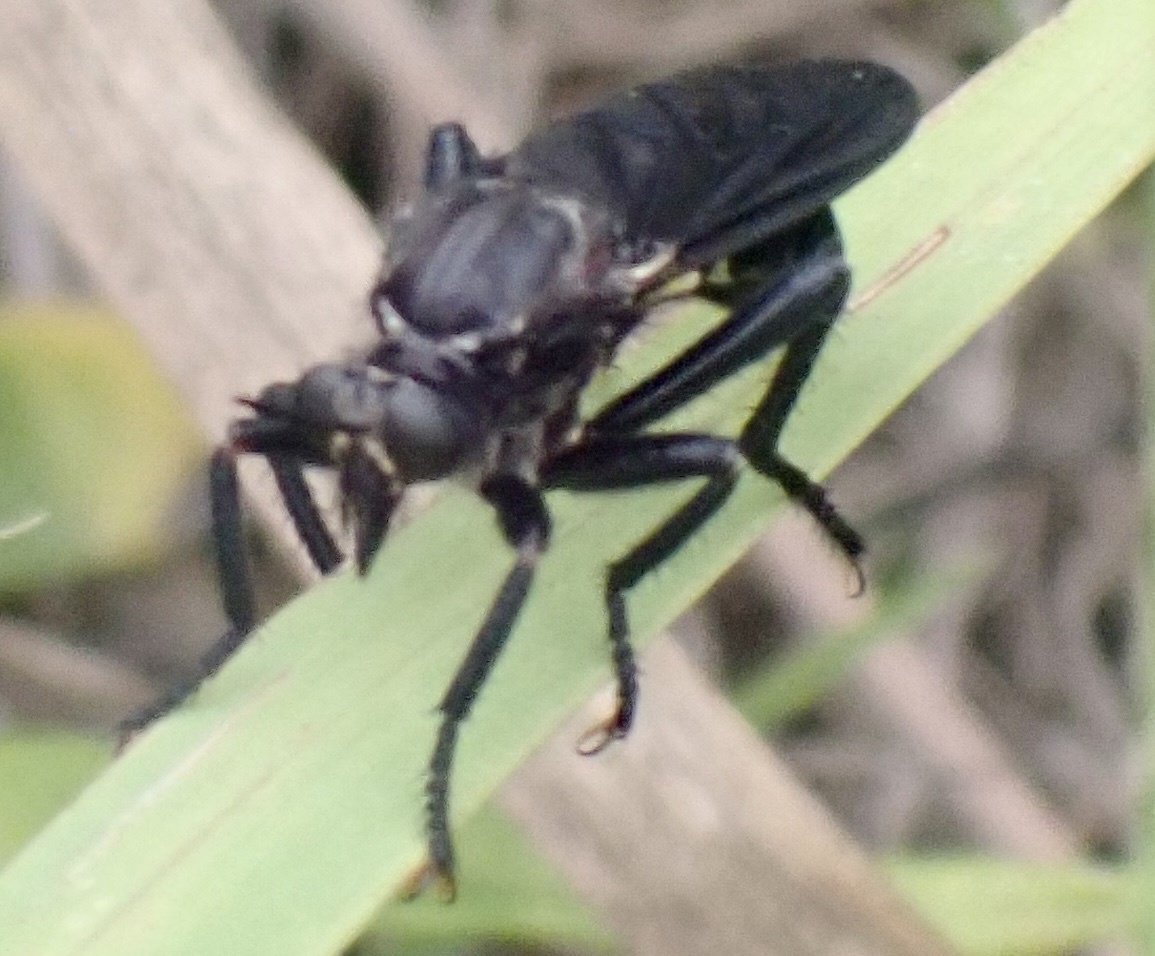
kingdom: Animalia
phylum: Arthropoda
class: Insecta
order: Diptera
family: Asilidae
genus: Prolepsis
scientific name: Prolepsis tristis
